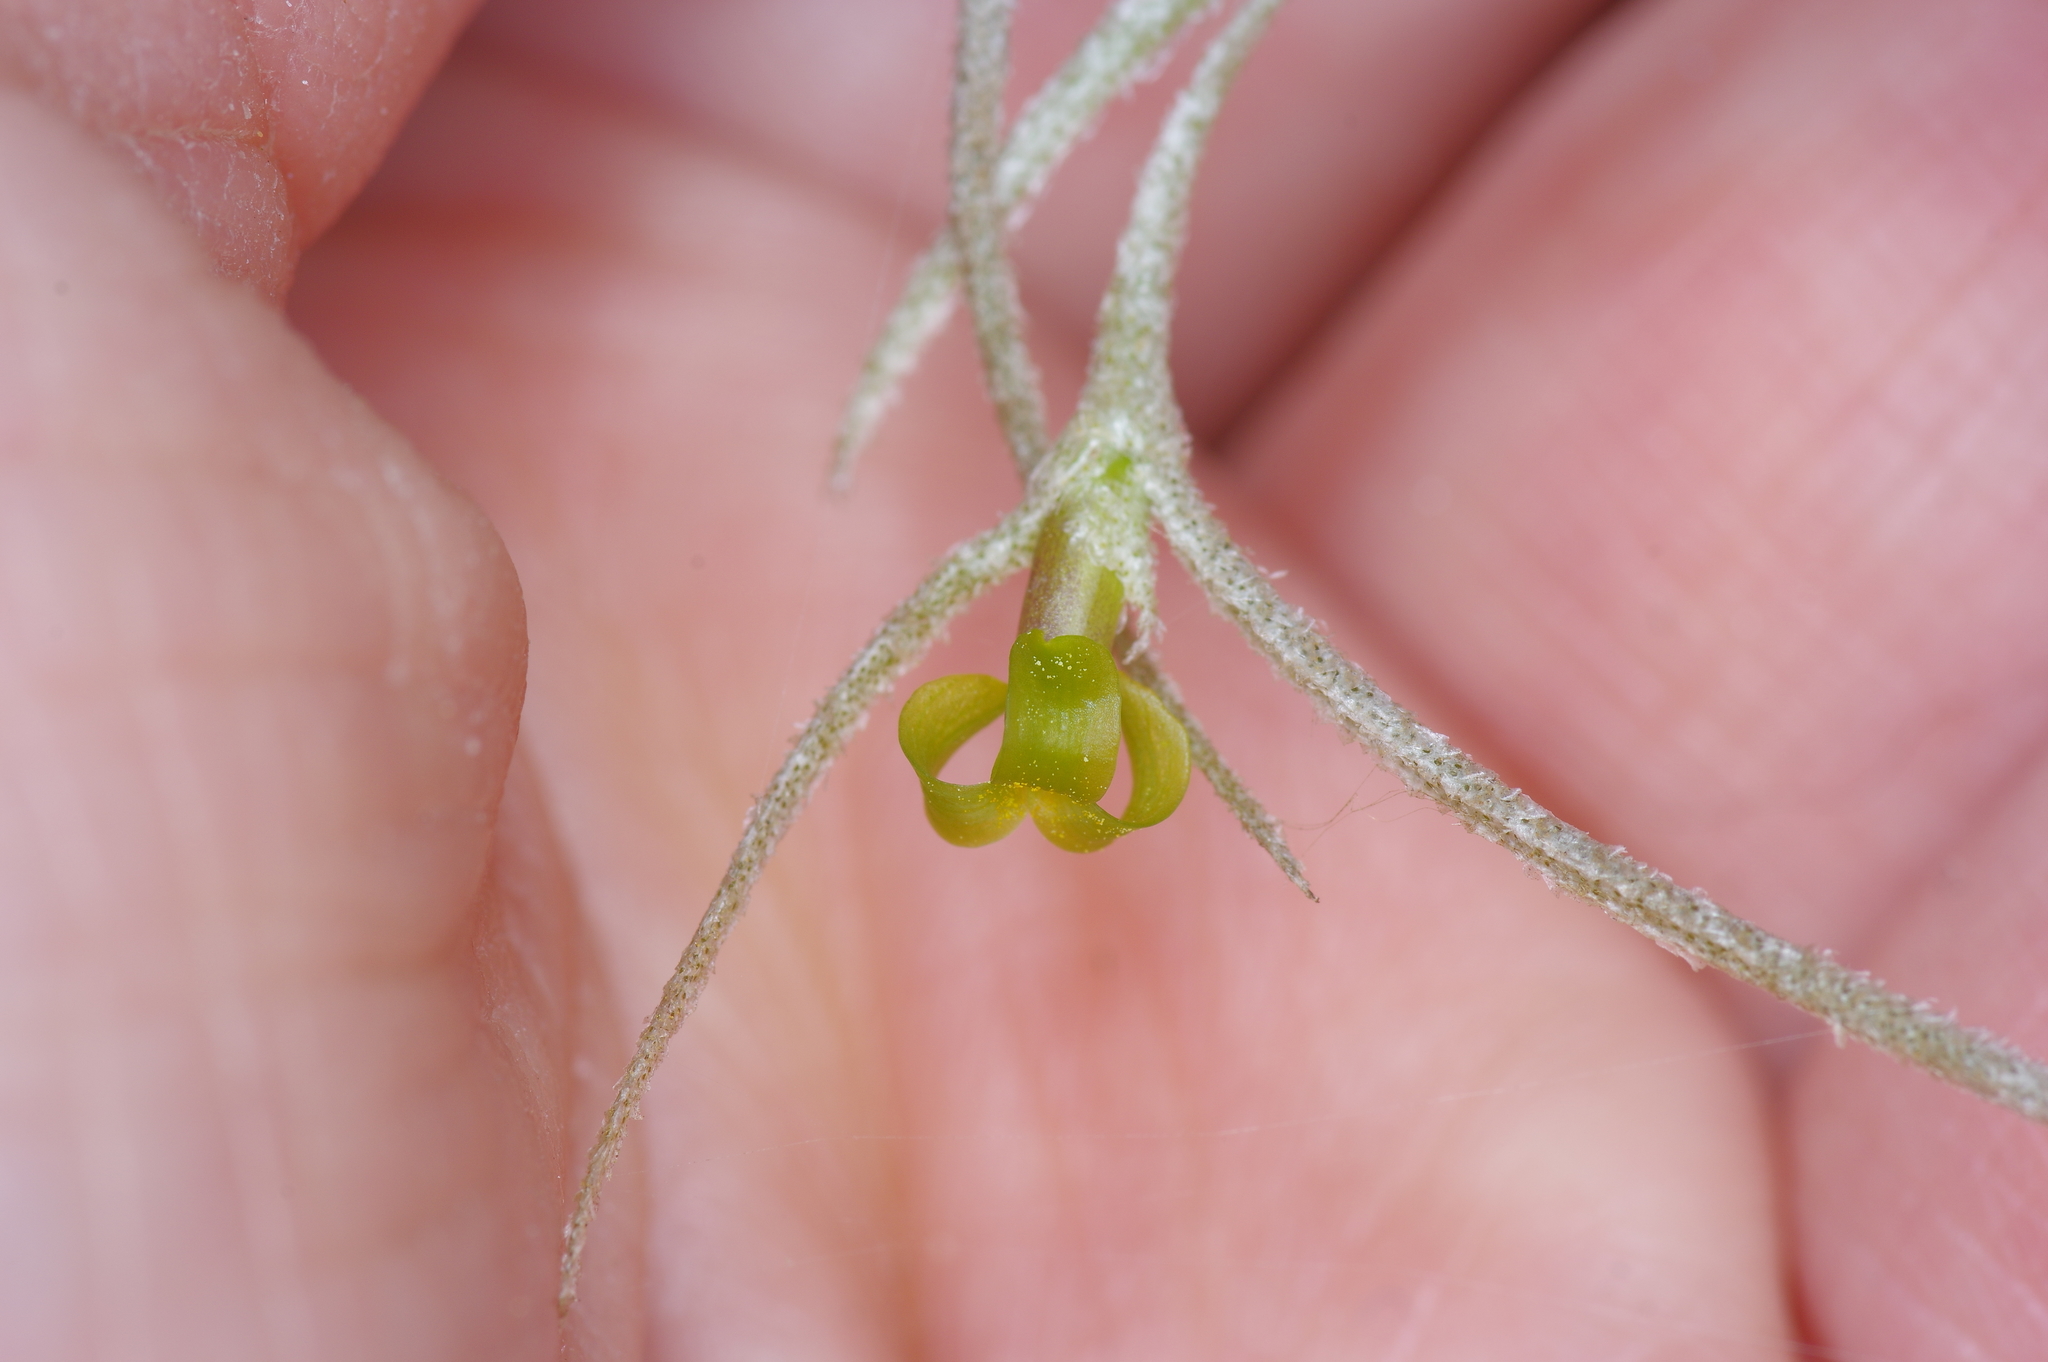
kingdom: Plantae
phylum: Tracheophyta
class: Liliopsida
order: Poales
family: Bromeliaceae
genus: Tillandsia
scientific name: Tillandsia usneoides
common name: Spanish moss
